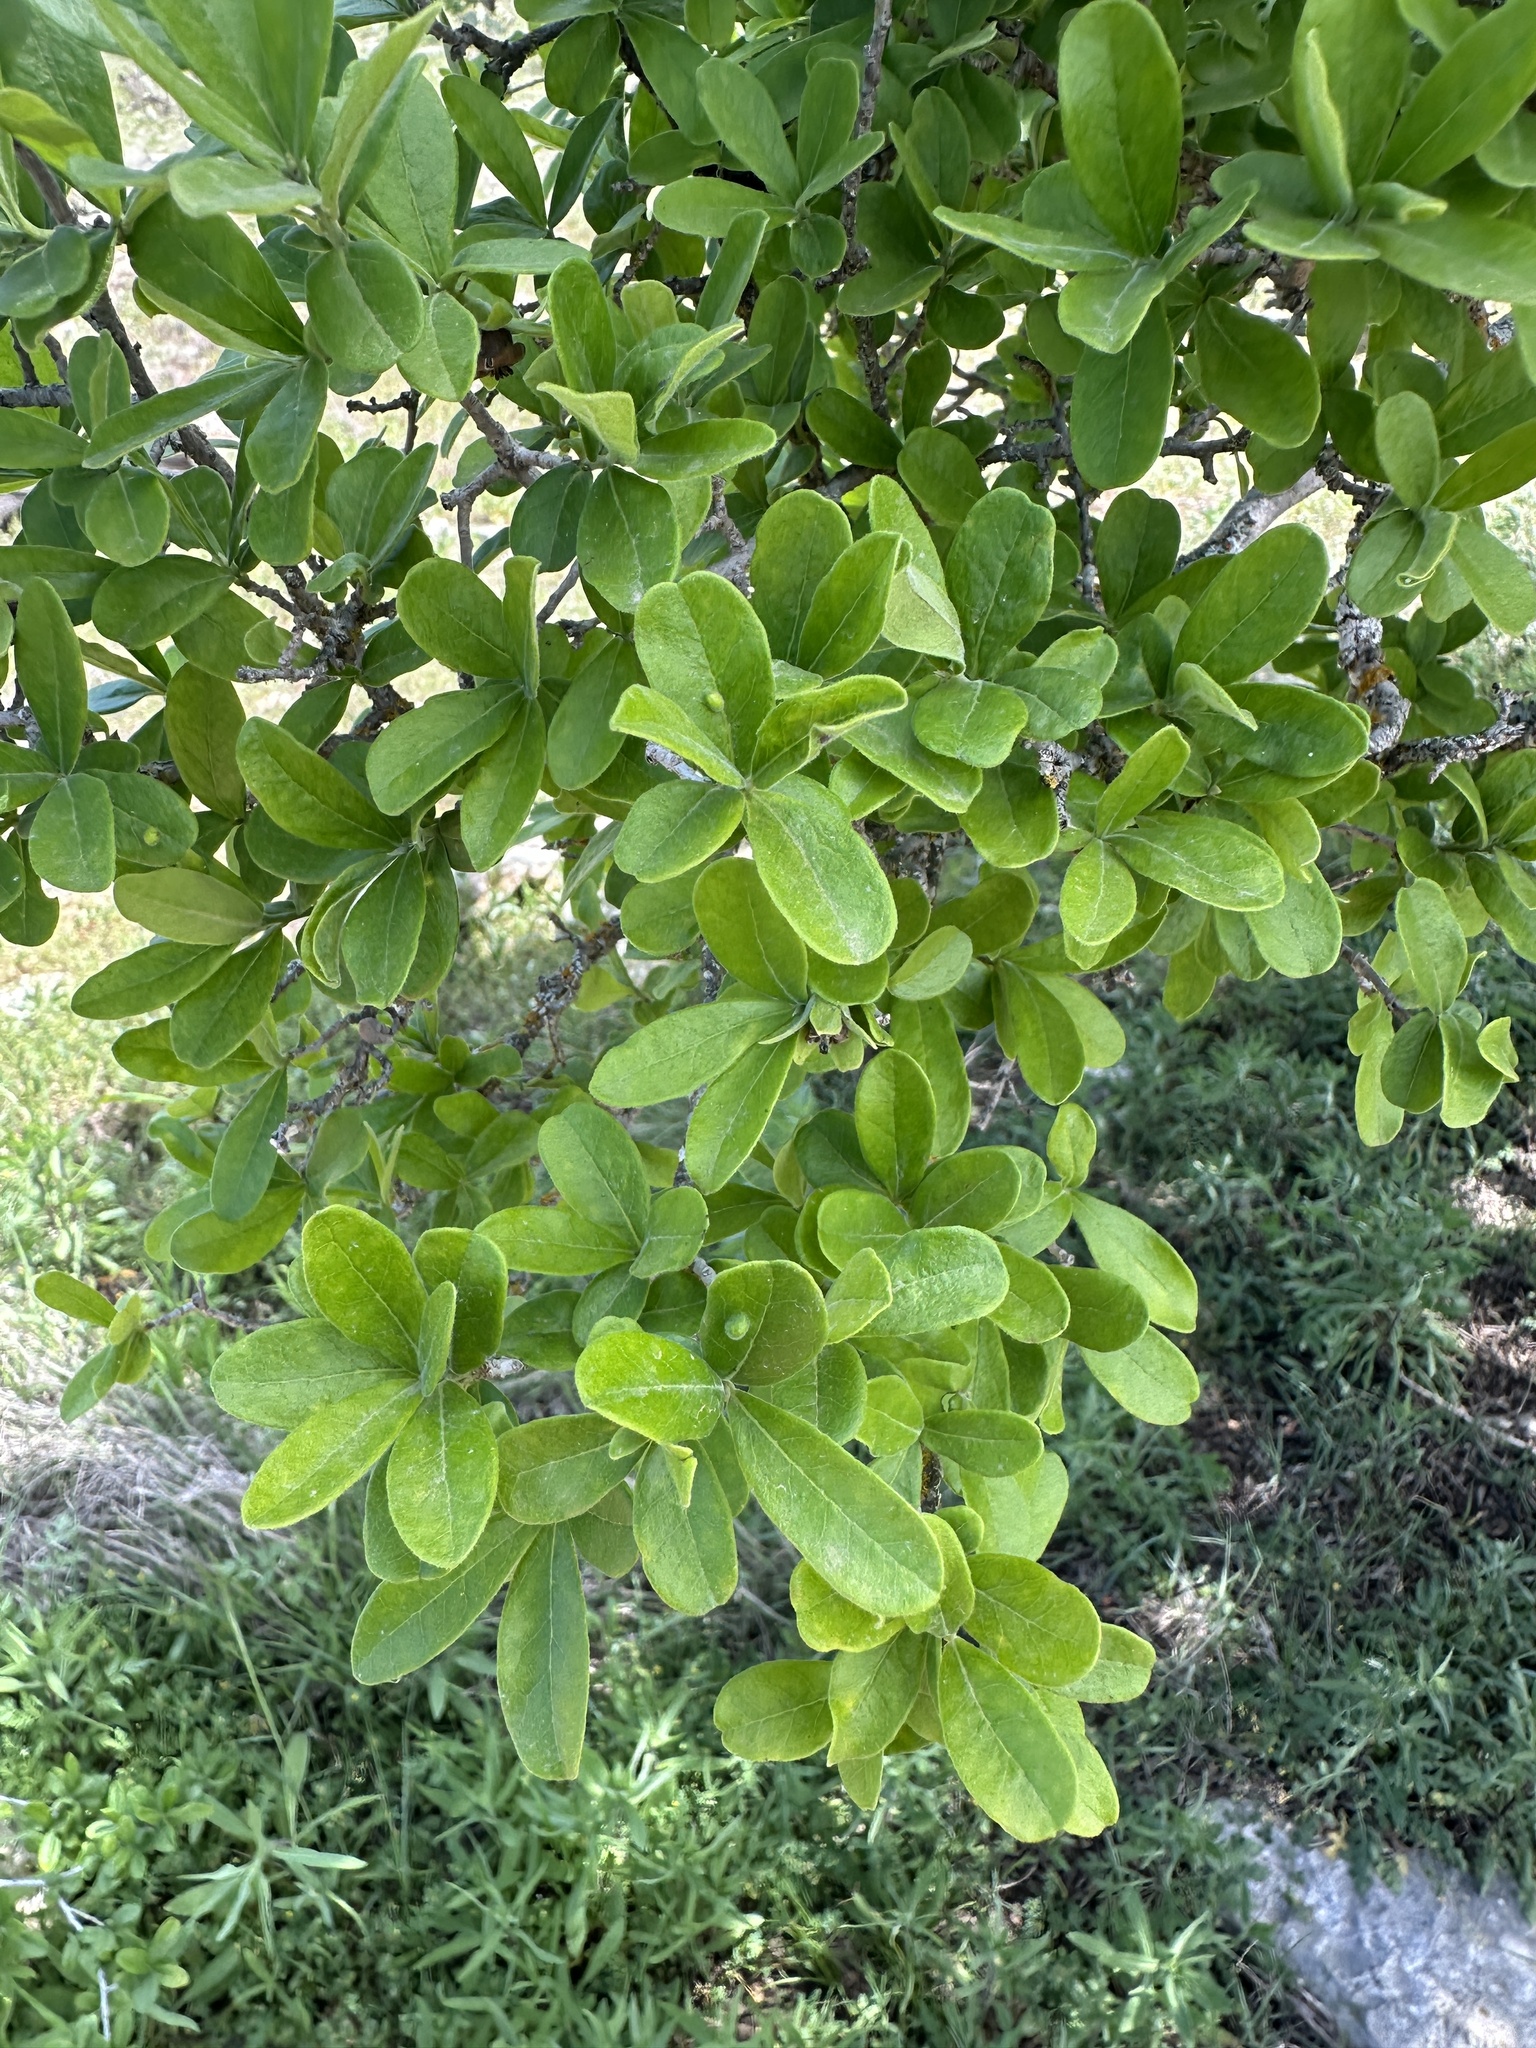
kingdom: Plantae
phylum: Tracheophyta
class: Magnoliopsida
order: Ericales
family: Ebenaceae
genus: Diospyros
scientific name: Diospyros texana
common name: Texas persimmon
